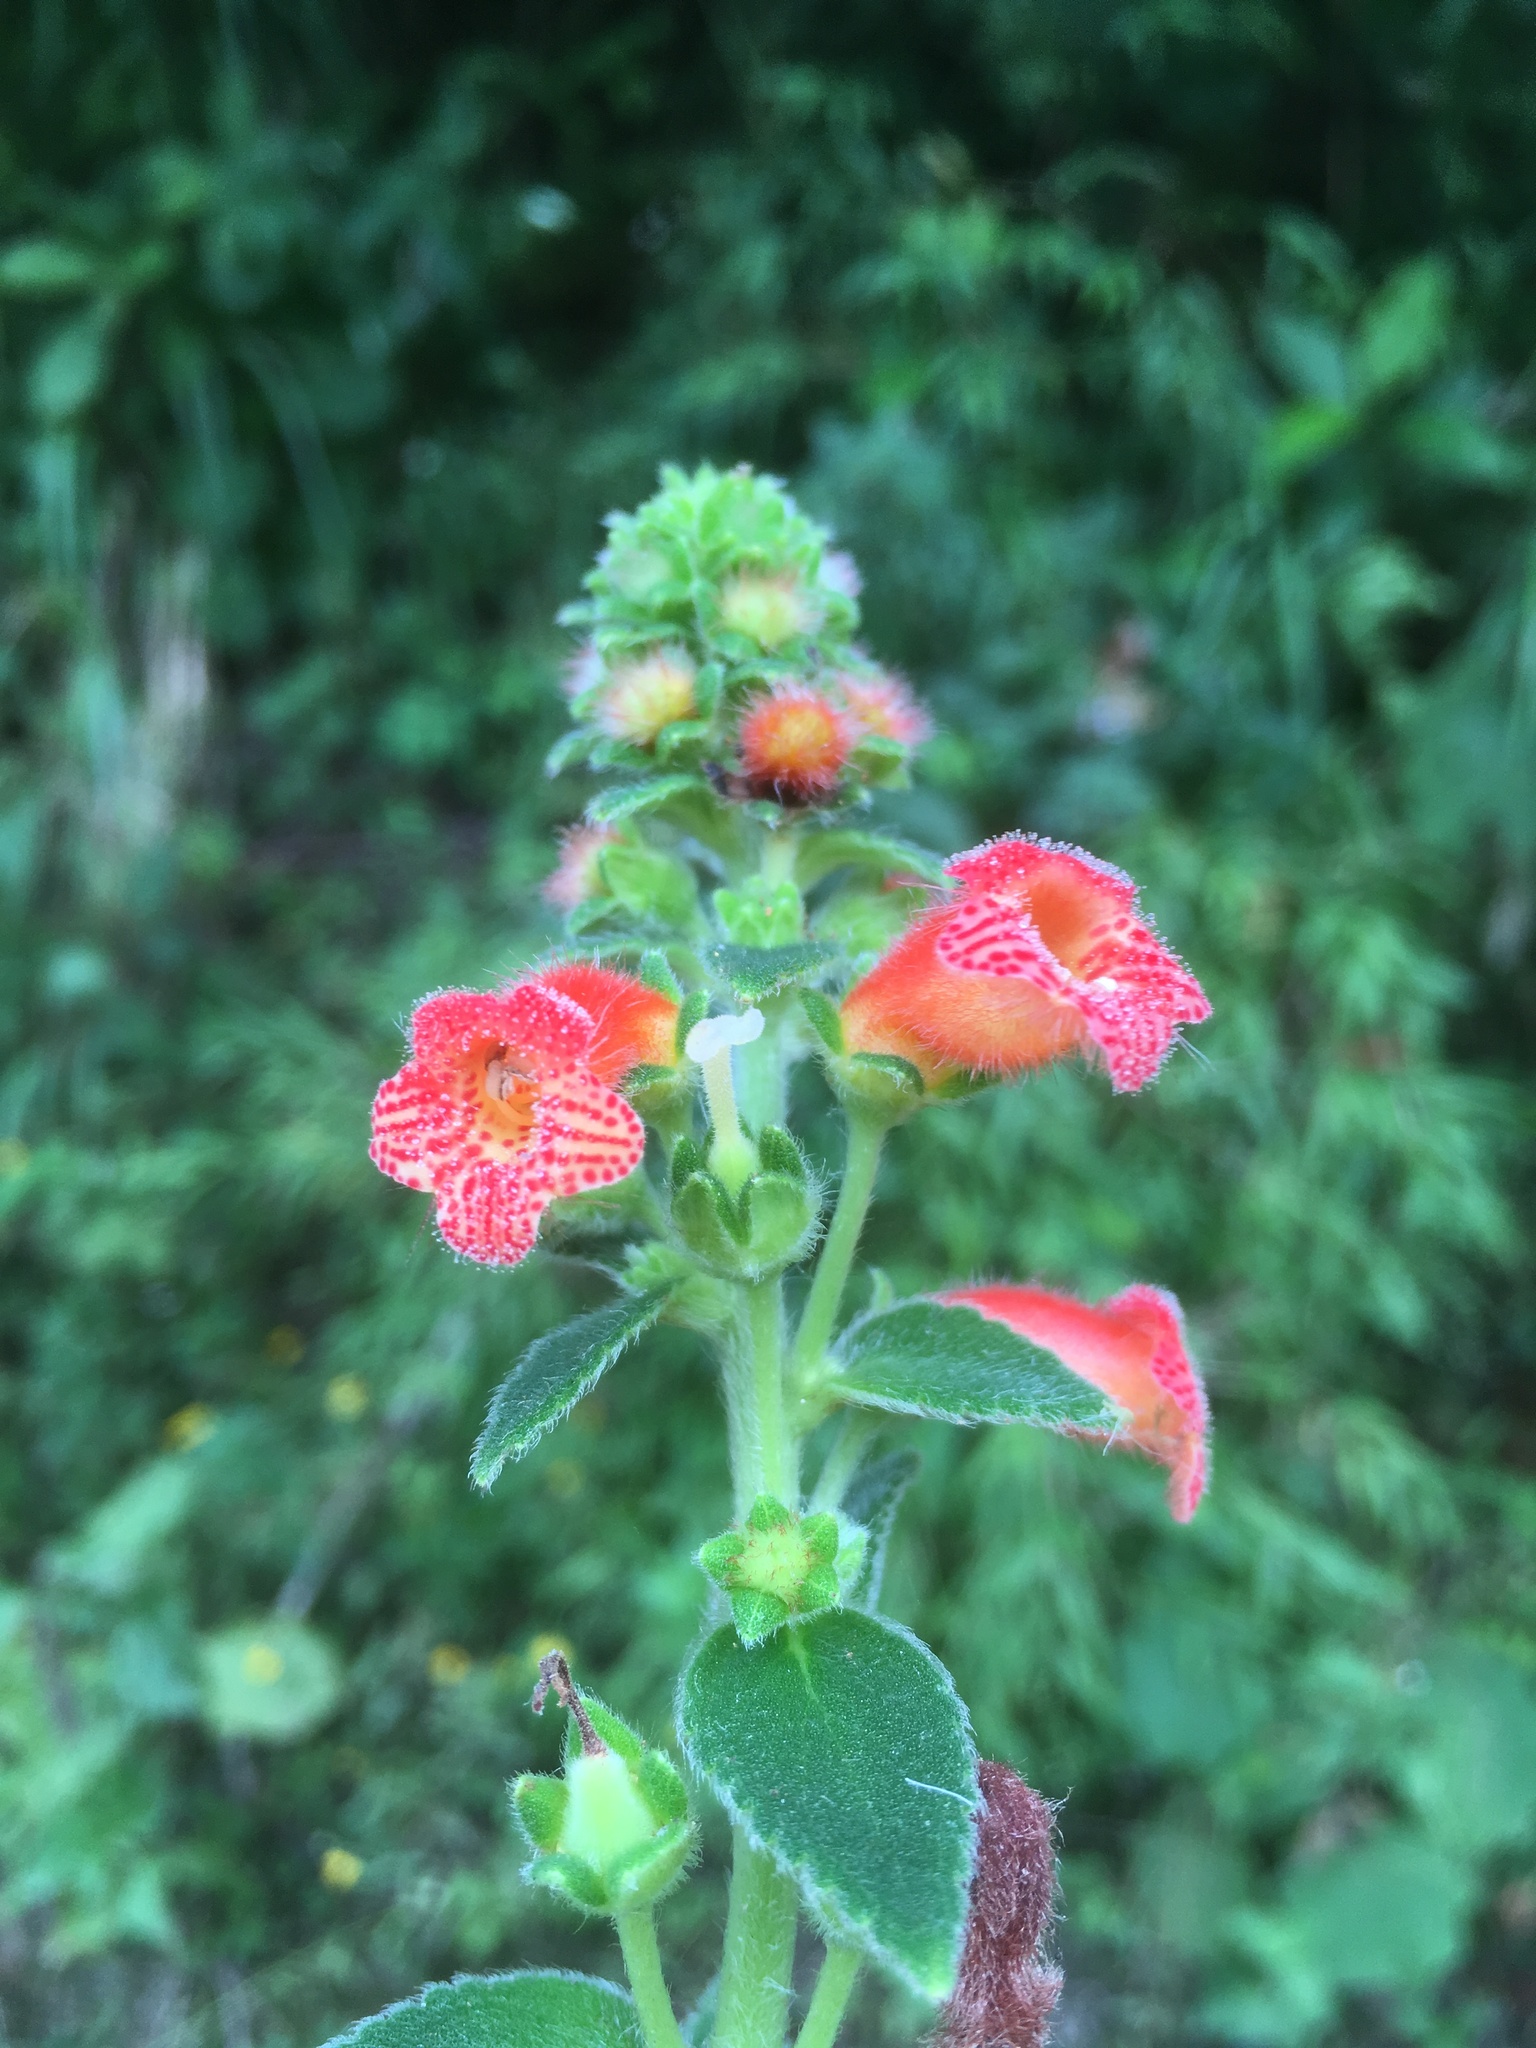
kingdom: Plantae
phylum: Tracheophyta
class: Magnoliopsida
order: Lamiales
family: Gesneriaceae
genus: Kohleria
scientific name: Kohleria spicata
